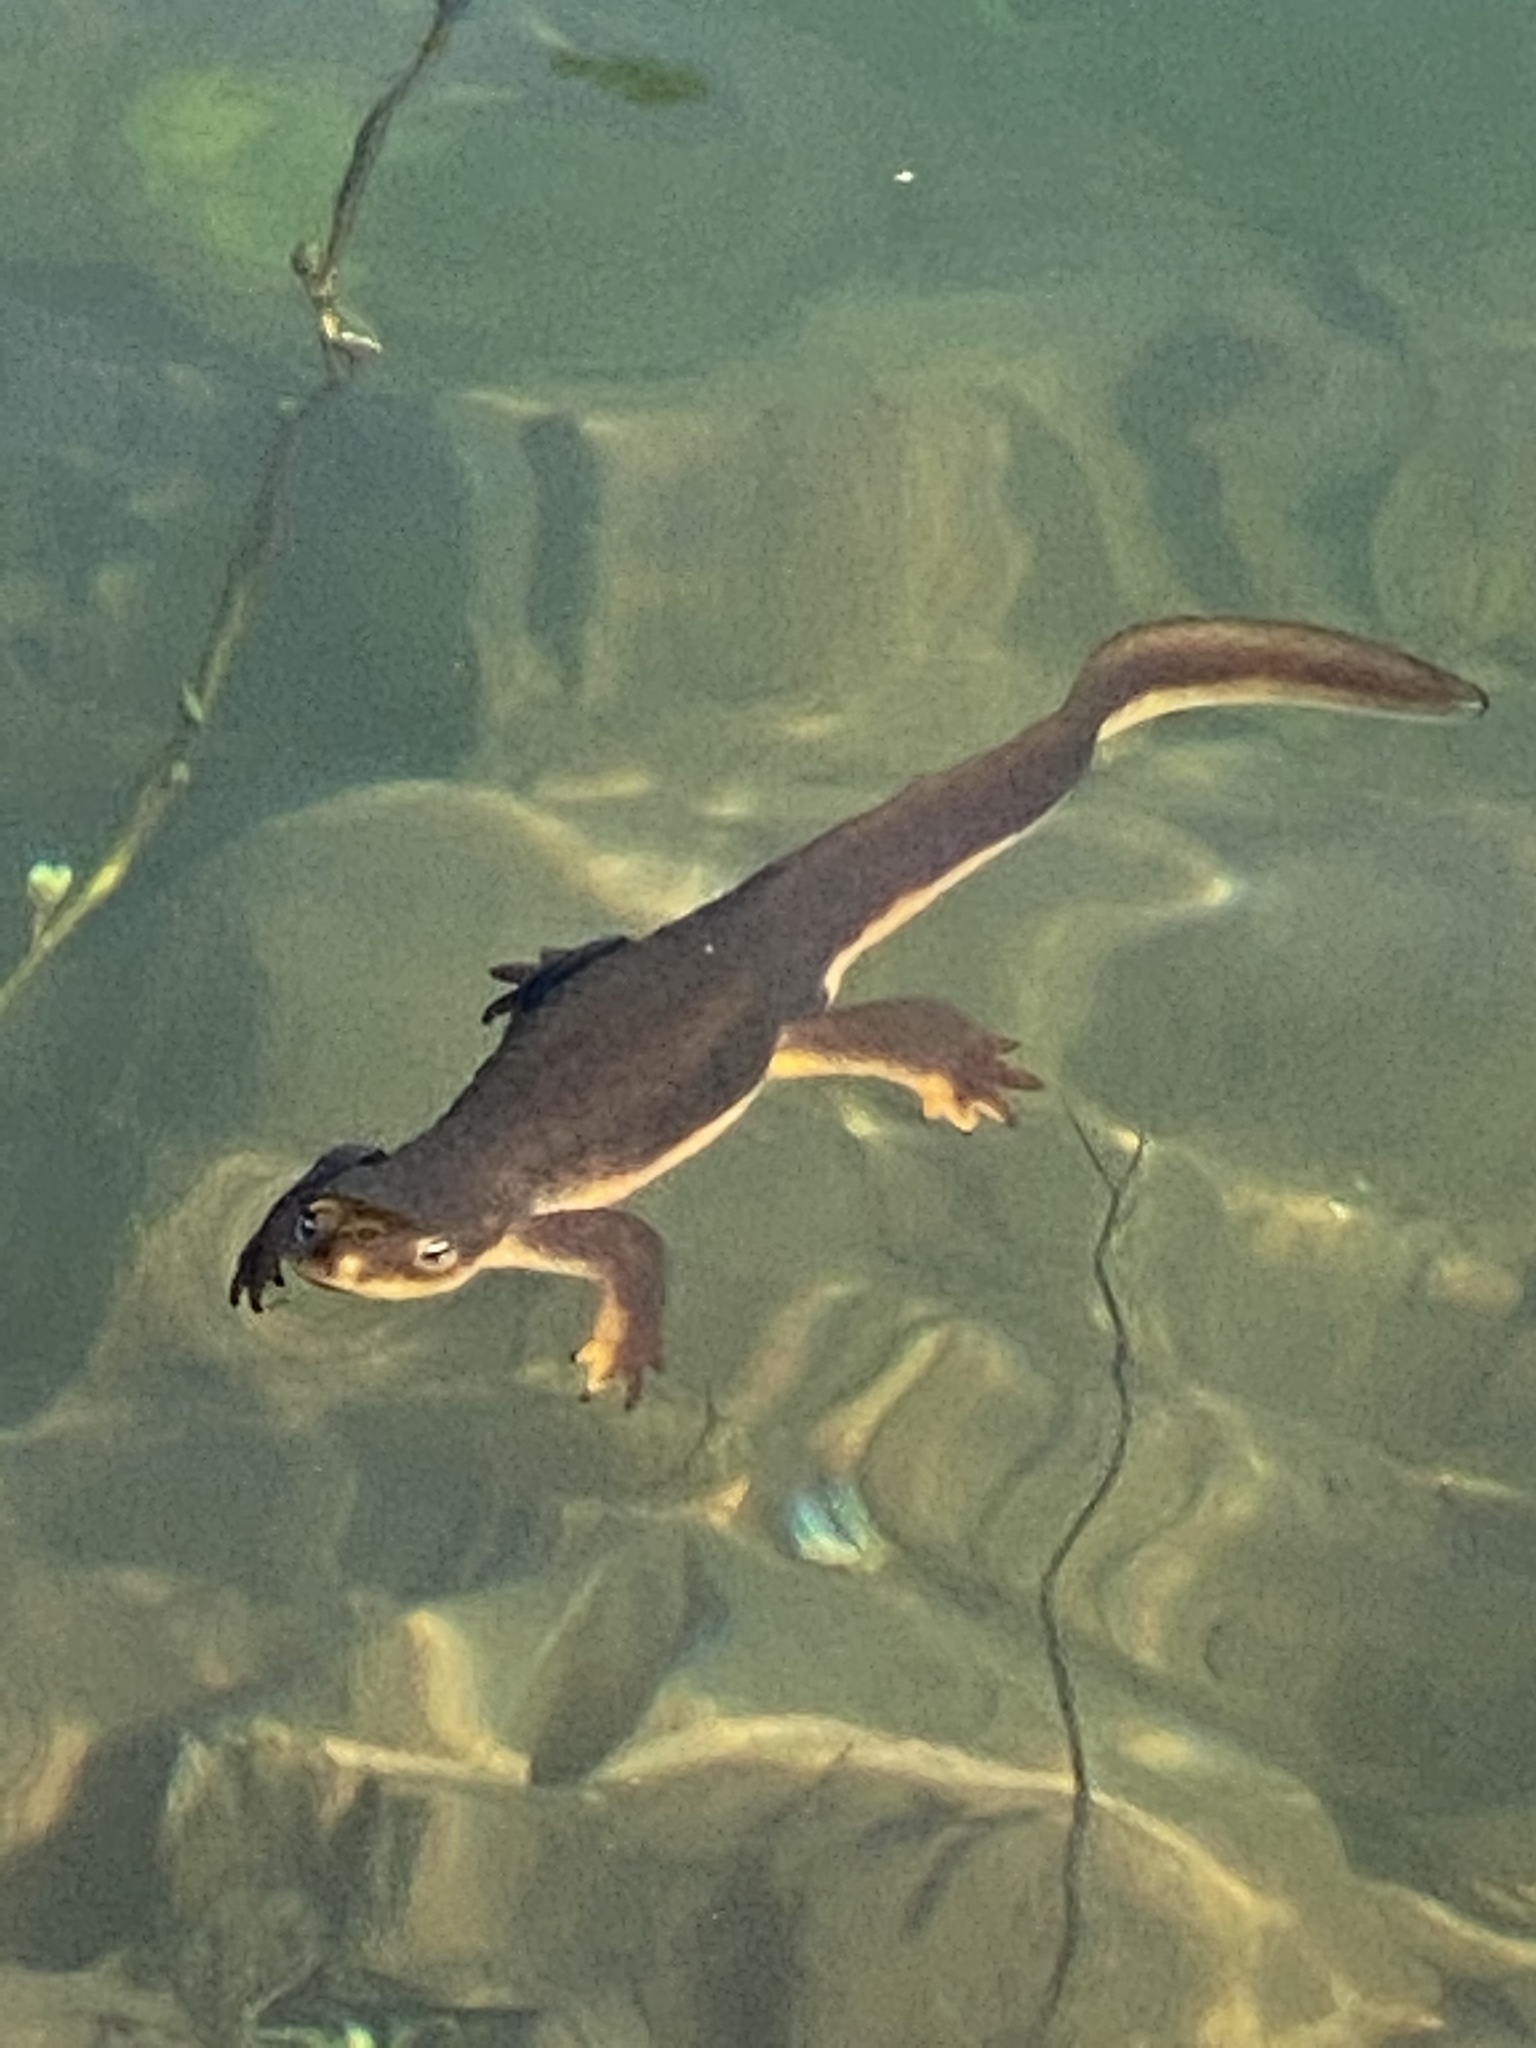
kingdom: Animalia
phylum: Chordata
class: Amphibia
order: Caudata
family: Salamandridae
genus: Taricha
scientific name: Taricha granulosa
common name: Roughskin newt
